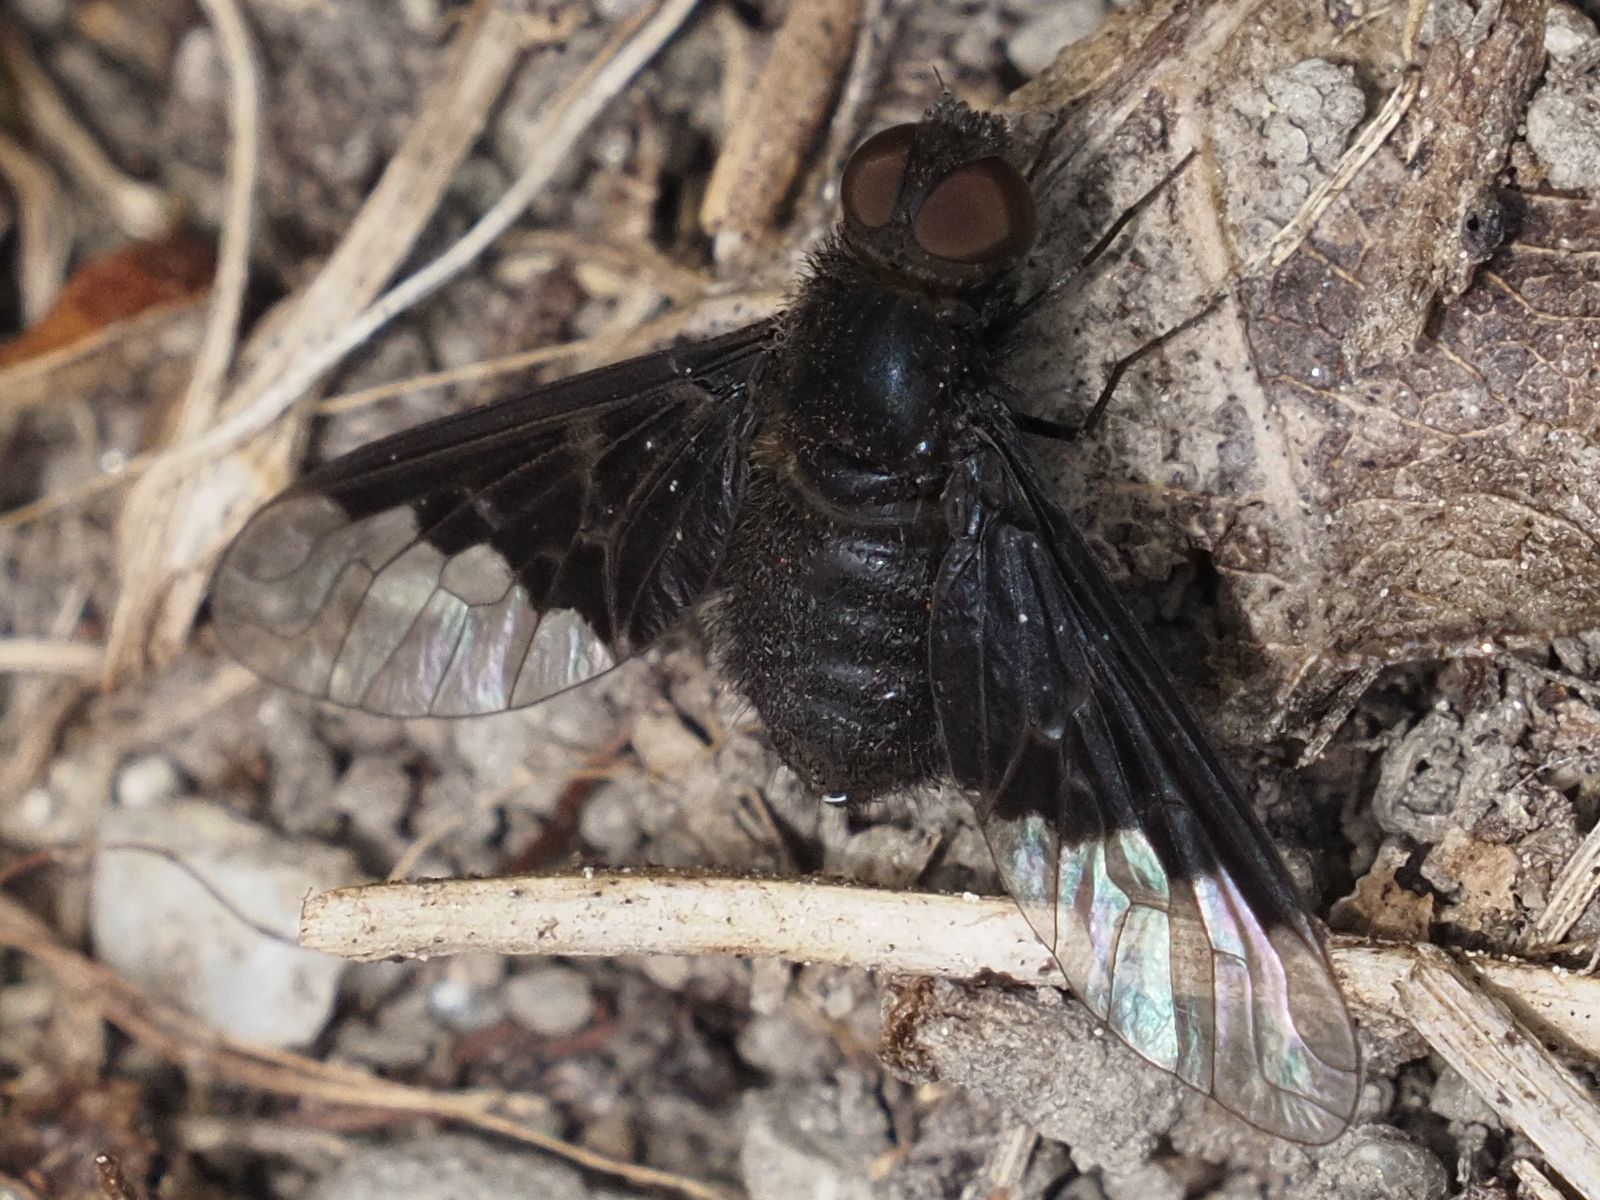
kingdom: Animalia
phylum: Arthropoda
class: Insecta
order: Diptera
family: Bombyliidae
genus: Hemipenthes
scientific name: Hemipenthes morio
